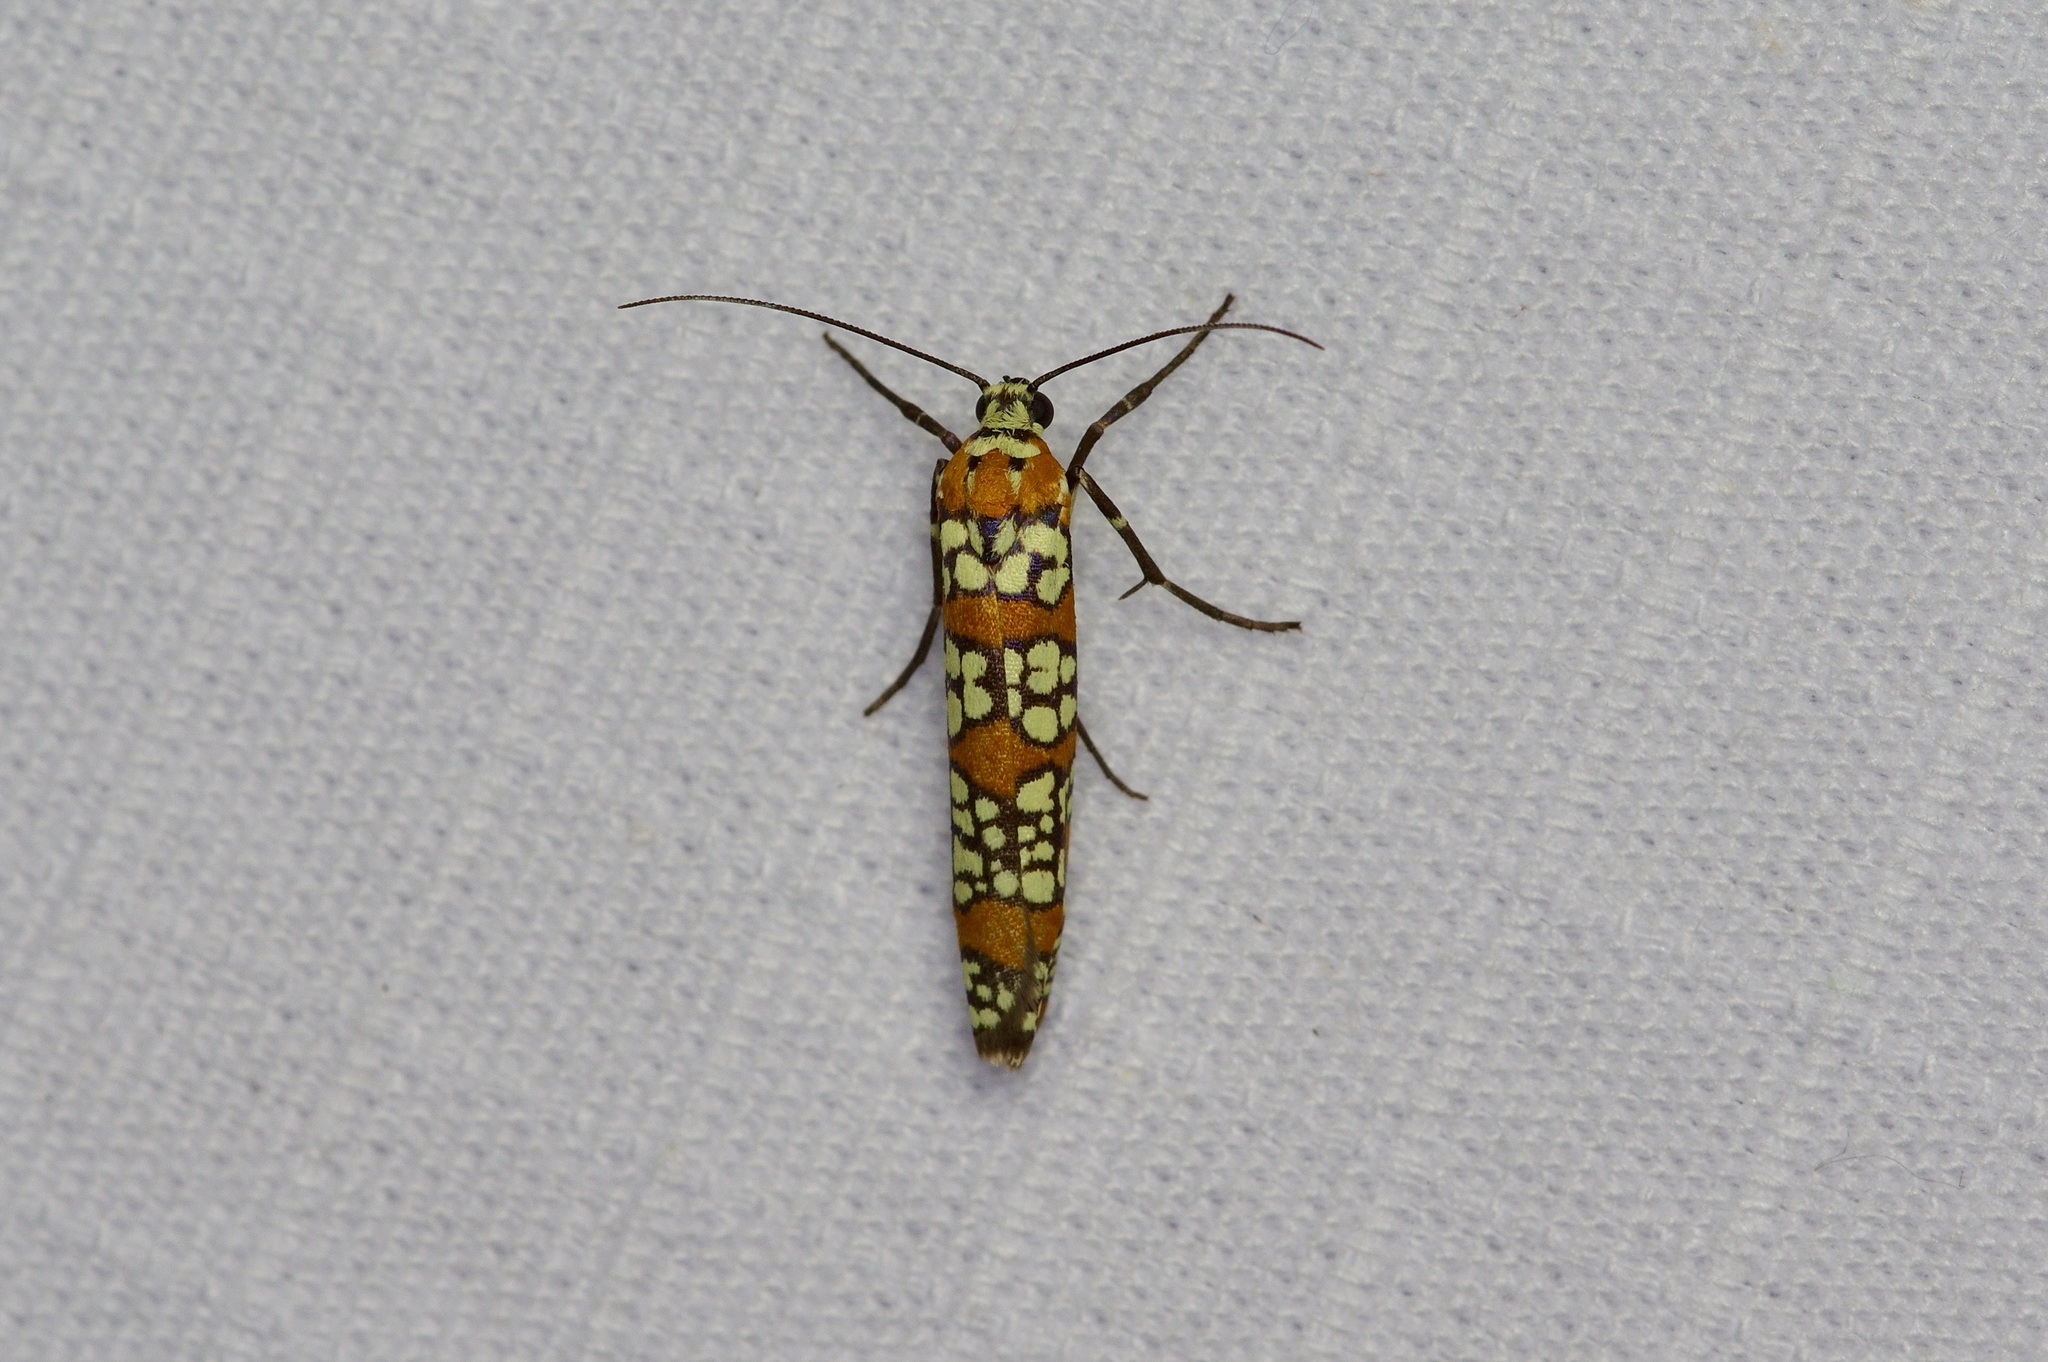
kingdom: Animalia
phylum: Arthropoda
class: Insecta
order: Lepidoptera
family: Attevidae
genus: Atteva
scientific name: Atteva punctella
